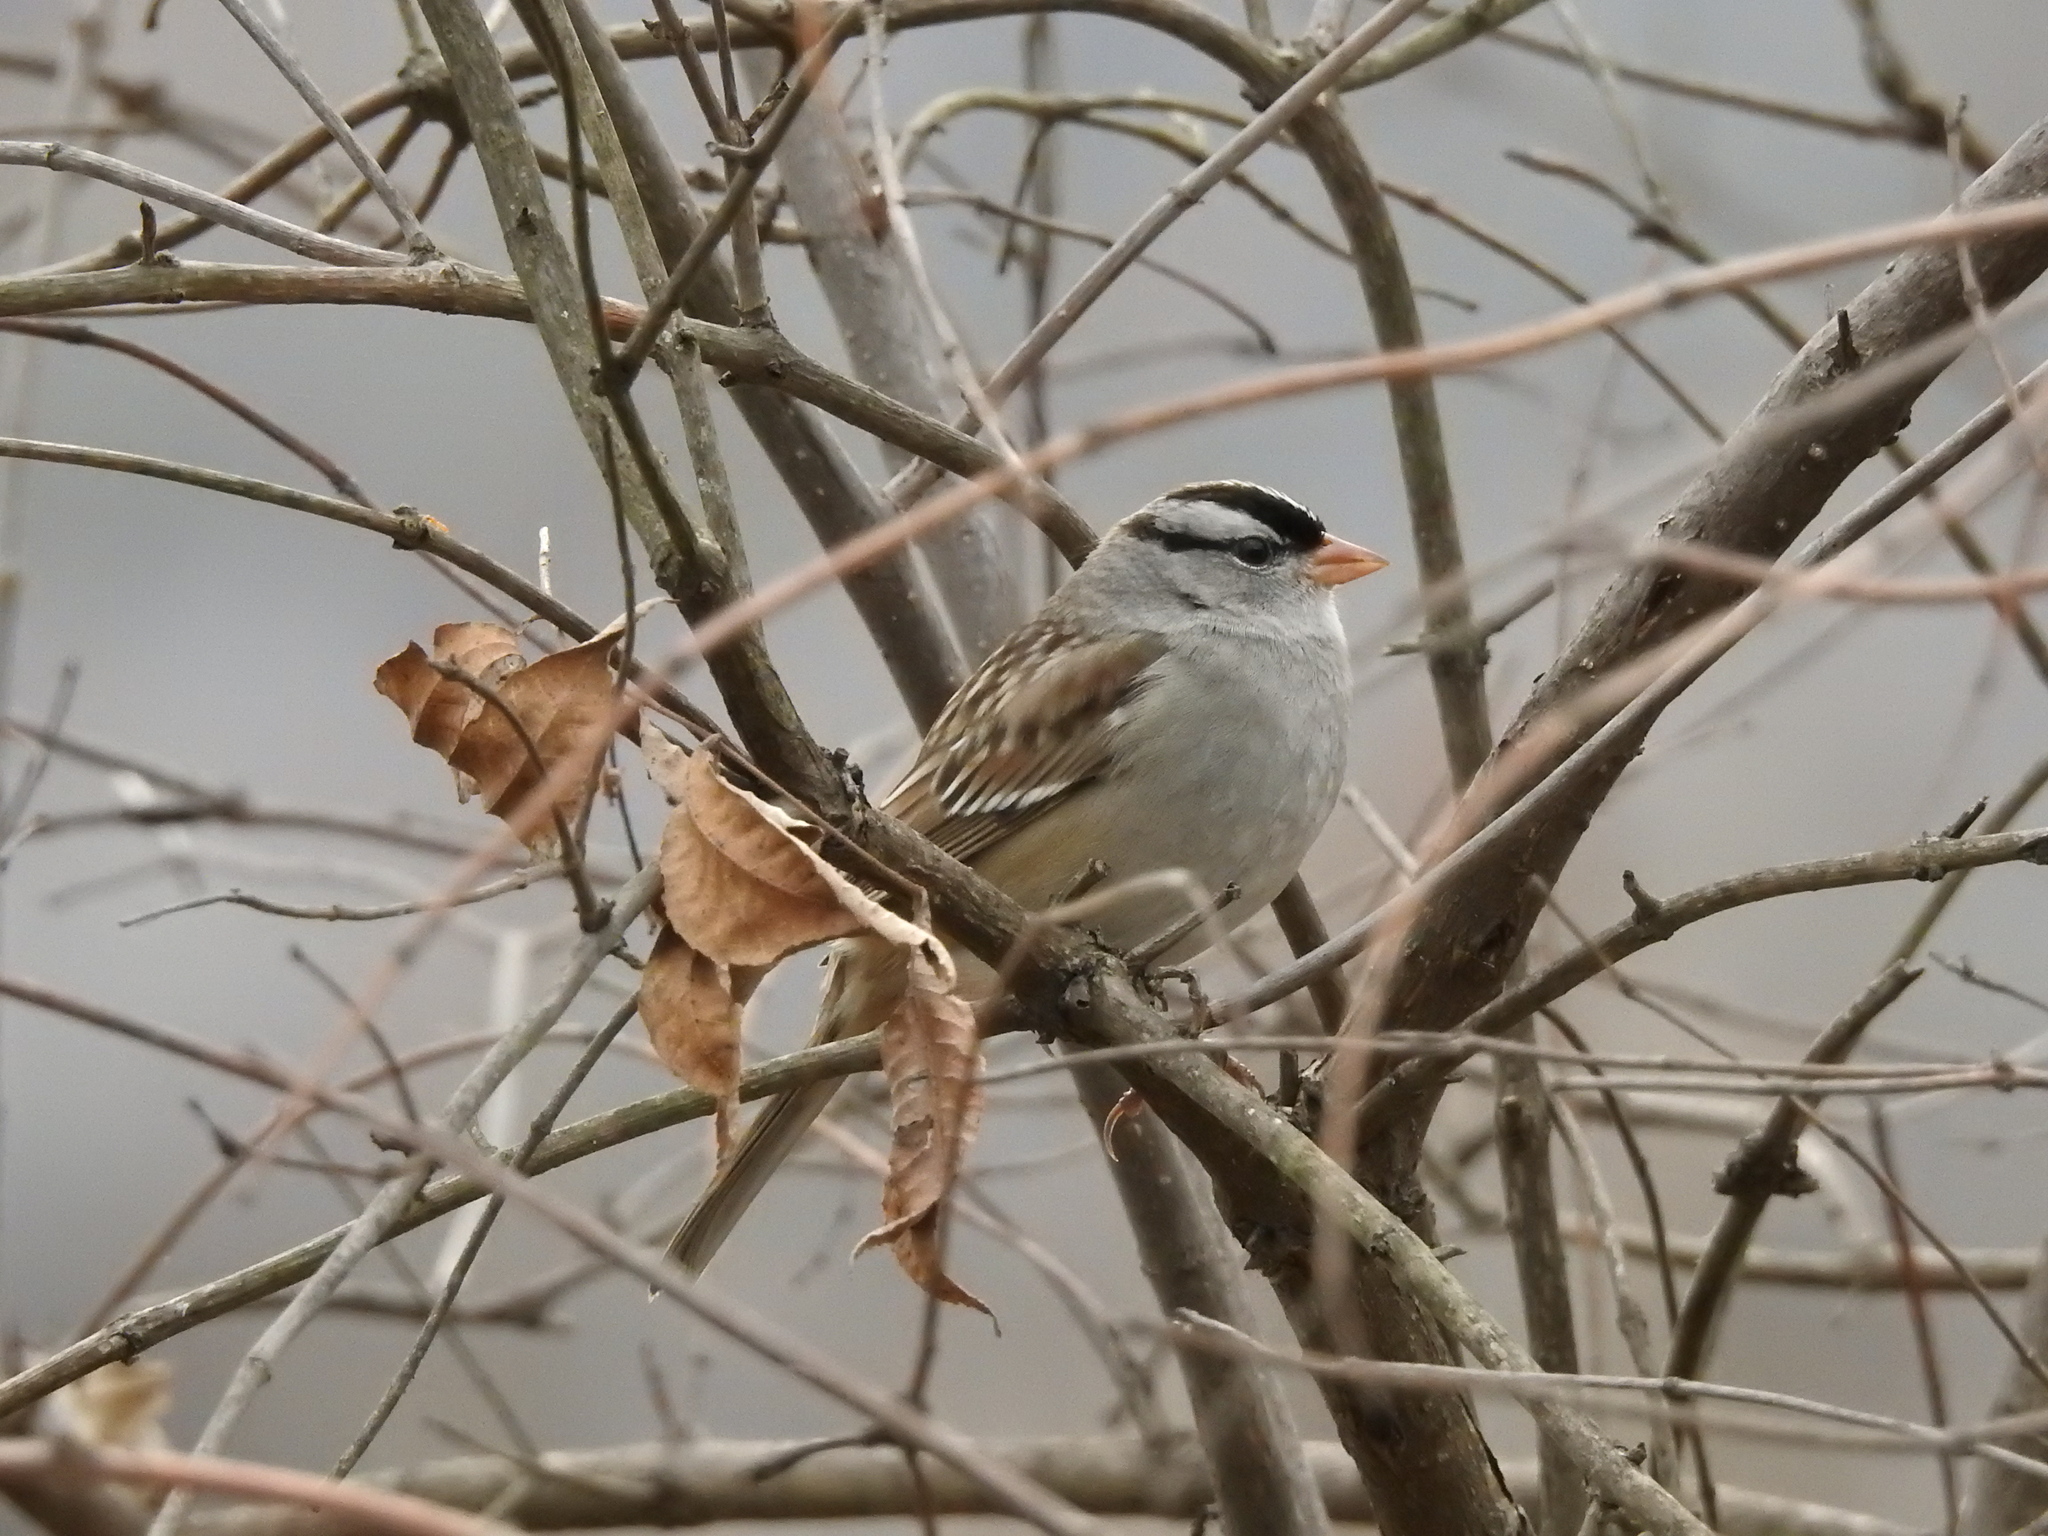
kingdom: Animalia
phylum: Chordata
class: Aves
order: Passeriformes
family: Passerellidae
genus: Zonotrichia
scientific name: Zonotrichia leucophrys
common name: White-crowned sparrow
